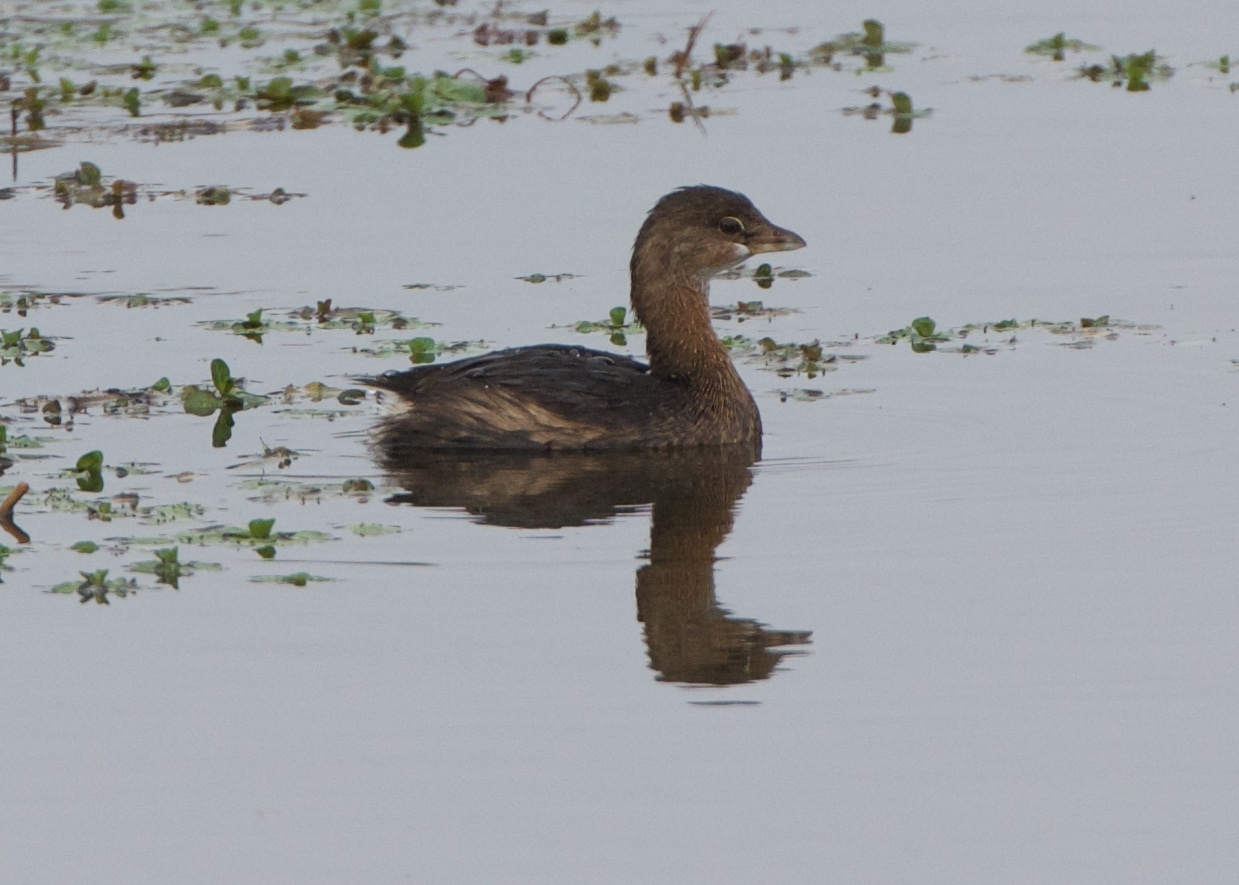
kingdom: Animalia
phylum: Chordata
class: Aves
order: Podicipediformes
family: Podicipedidae
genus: Podilymbus
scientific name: Podilymbus podiceps
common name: Pied-billed grebe
